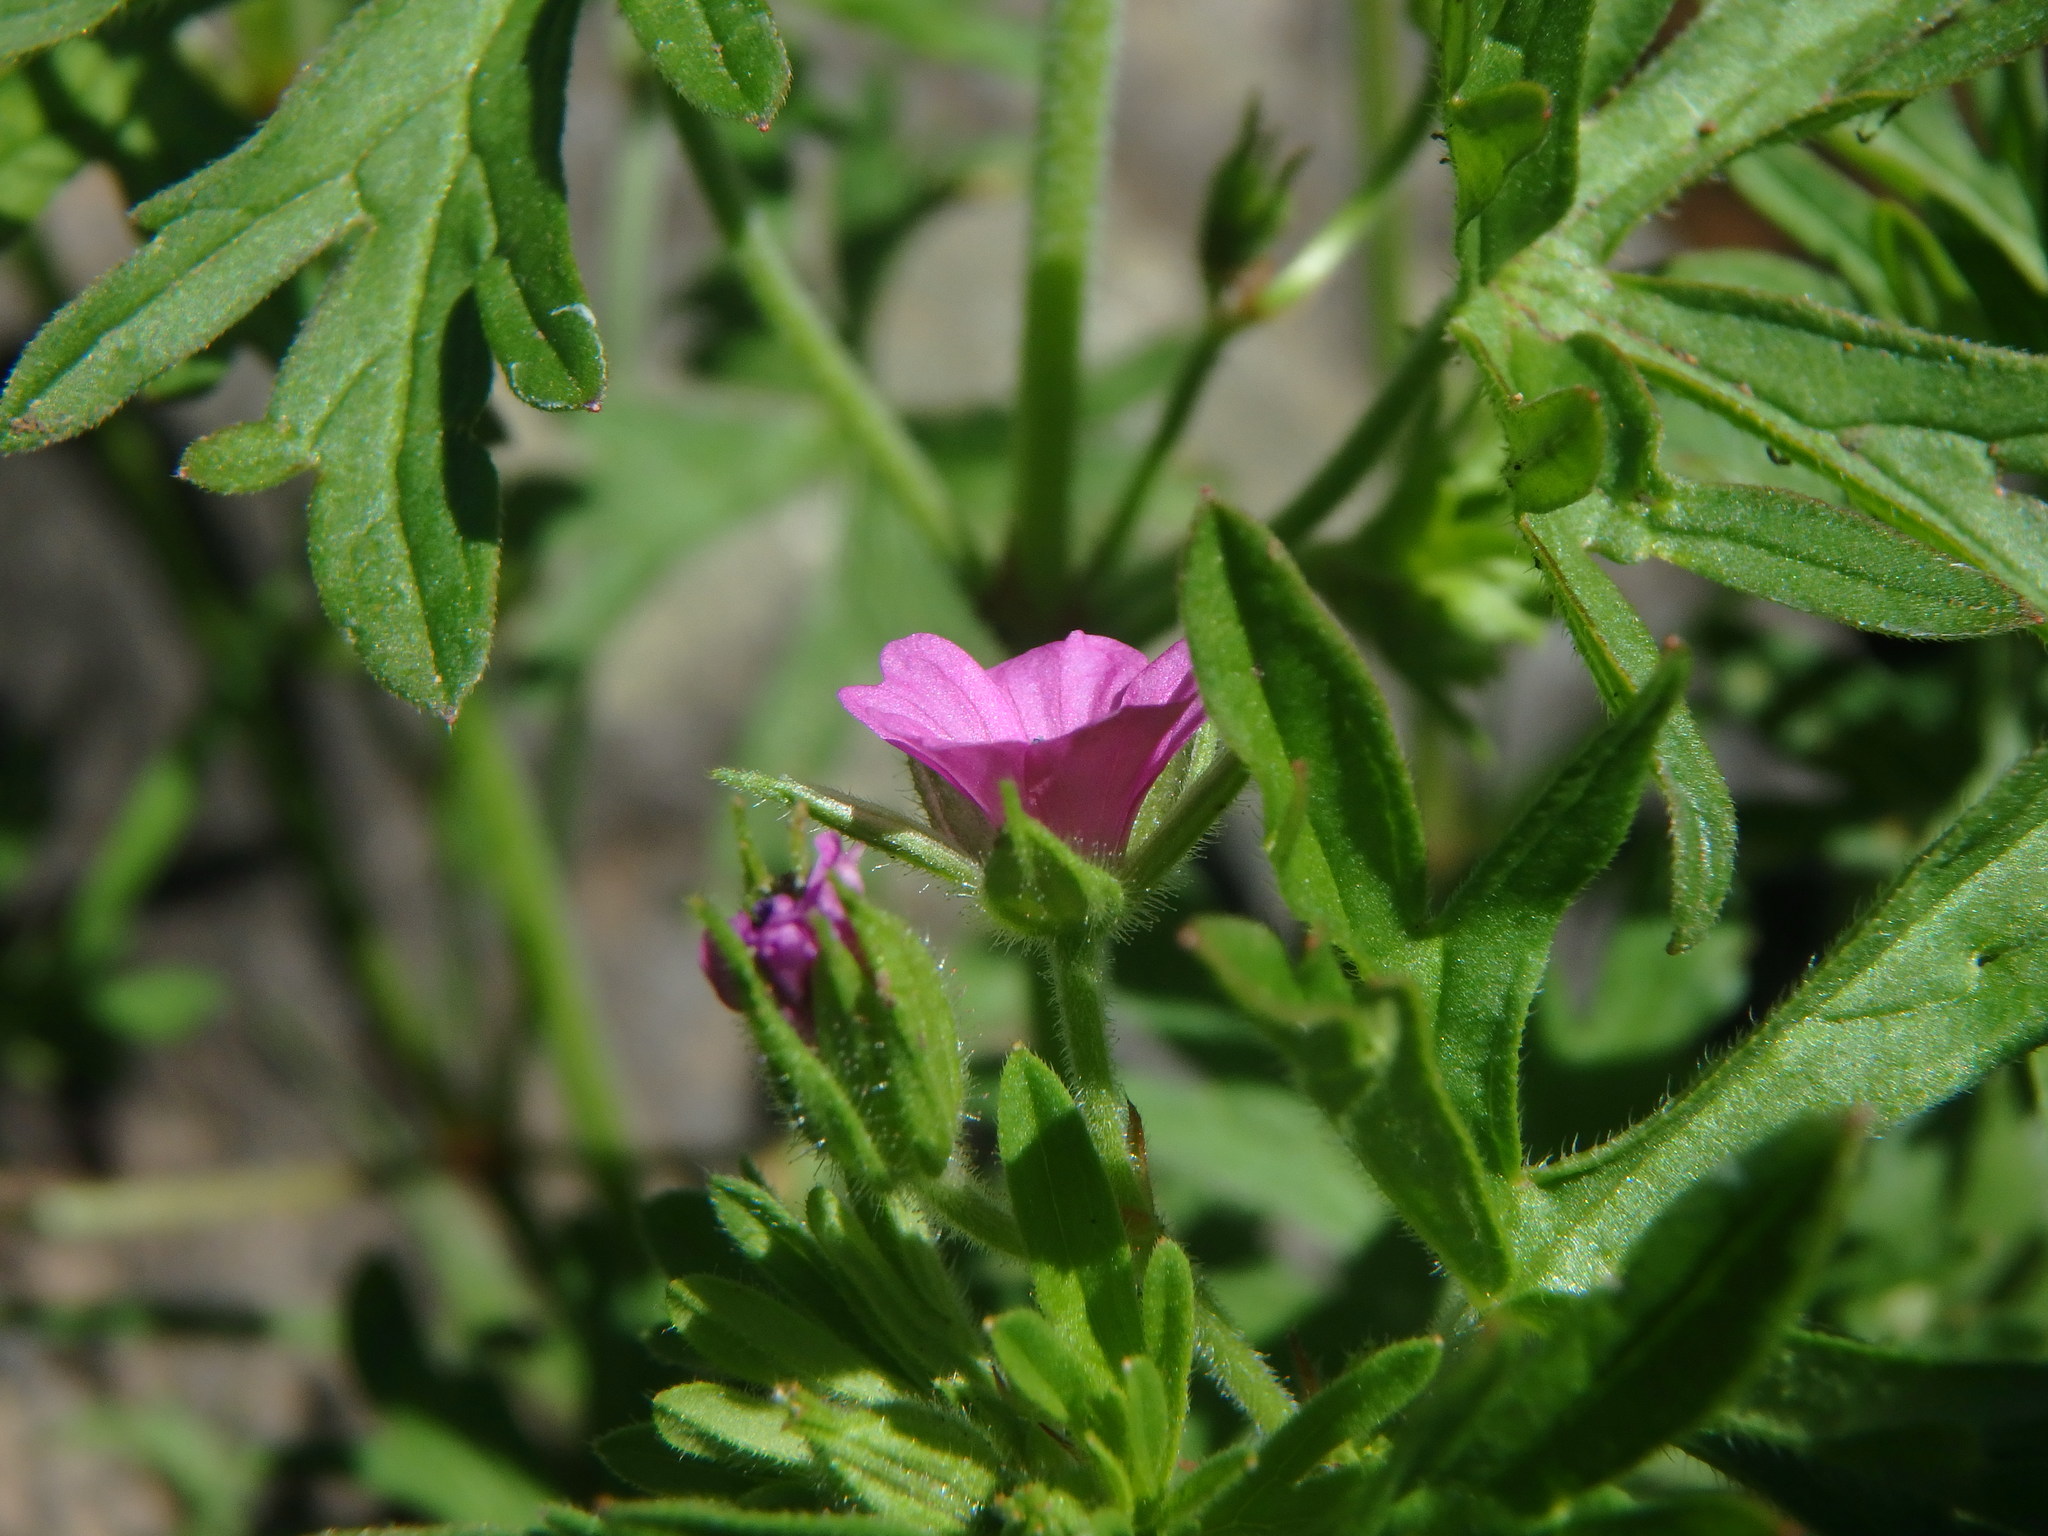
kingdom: Plantae
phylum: Tracheophyta
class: Magnoliopsida
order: Geraniales
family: Geraniaceae
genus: Geranium
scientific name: Geranium dissectum
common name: Cut-leaved crane's-bill
